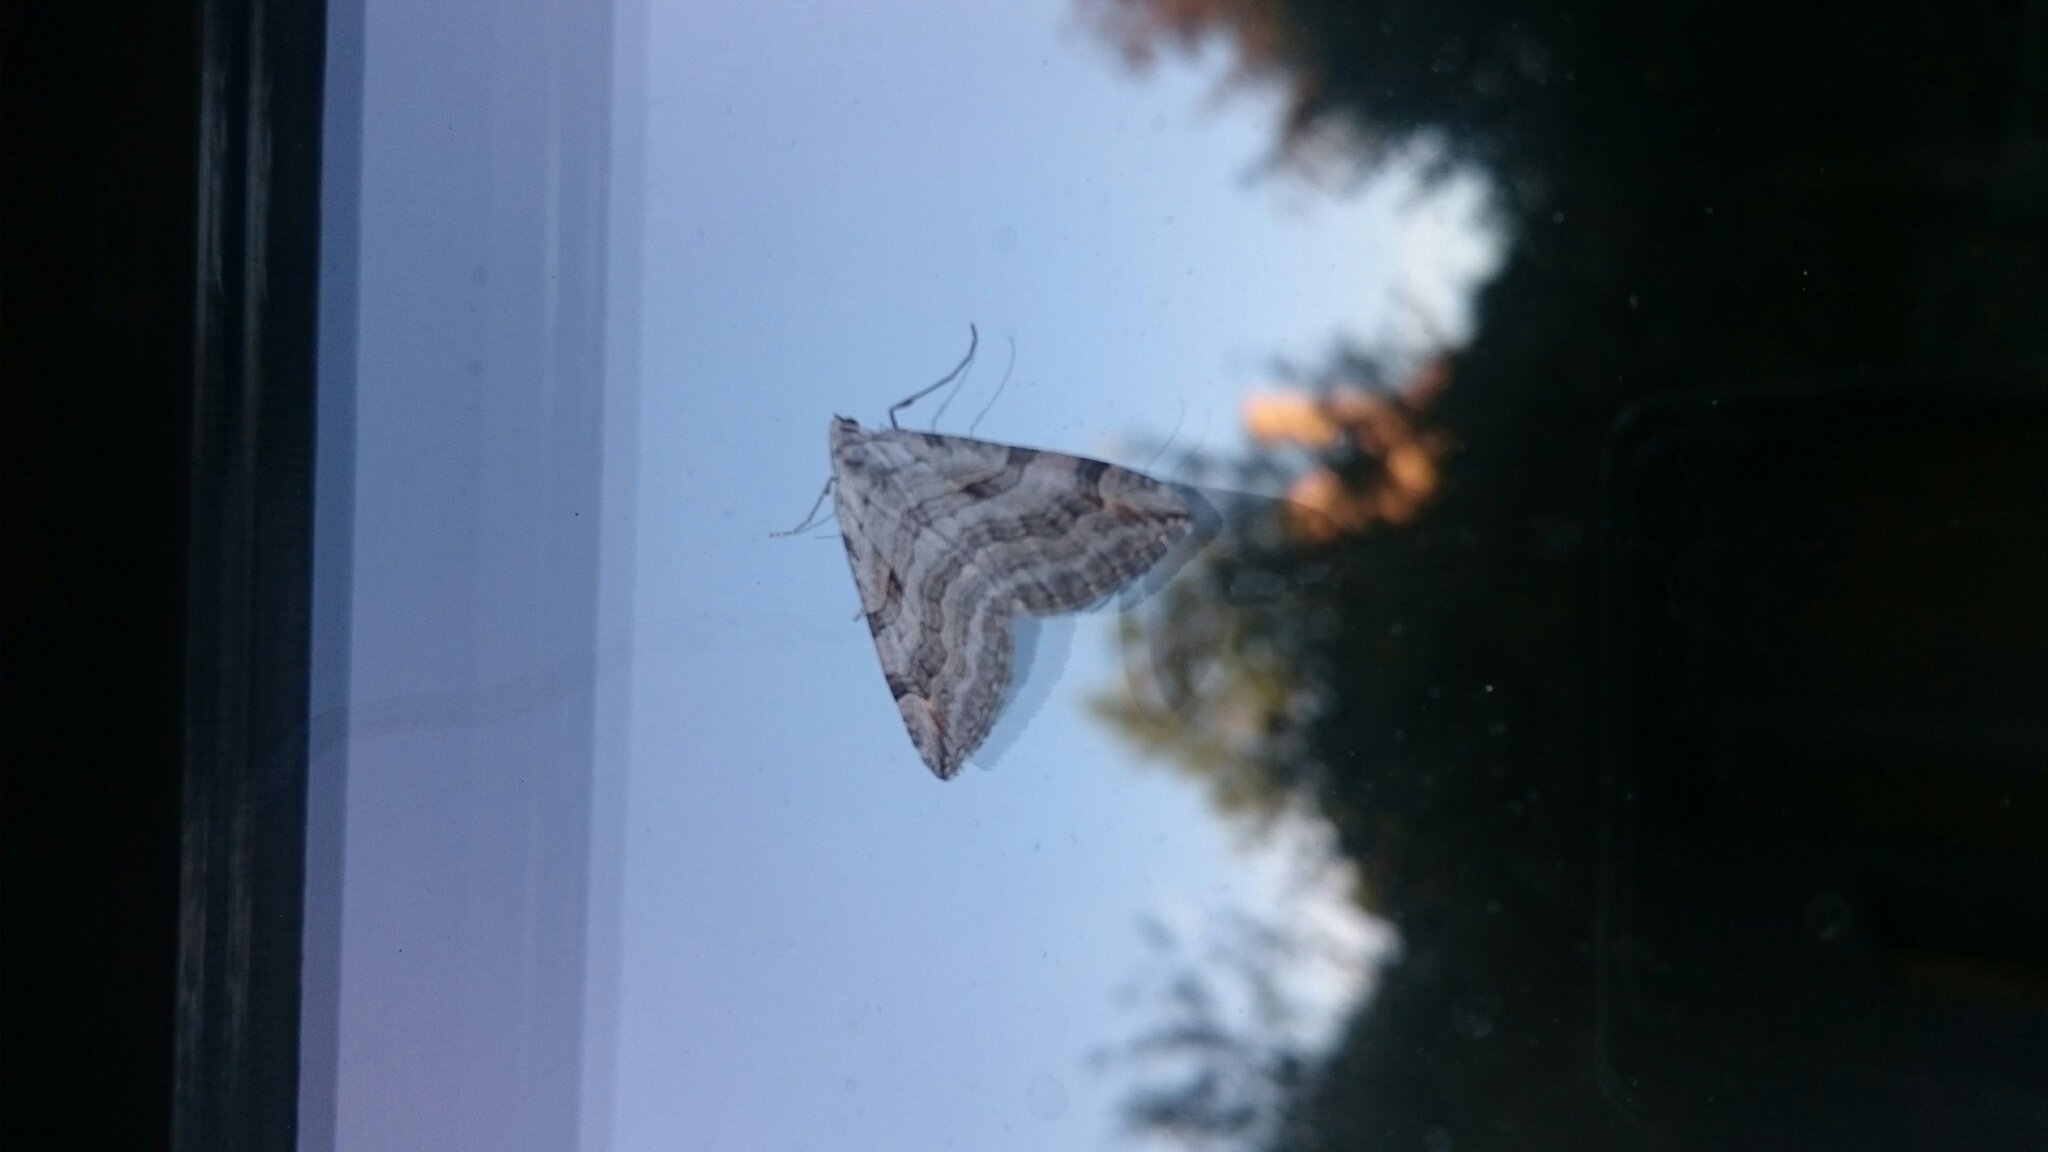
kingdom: Animalia
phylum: Arthropoda
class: Insecta
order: Lepidoptera
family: Geometridae
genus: Aplocera
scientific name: Aplocera plagiata
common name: Treble-bar
